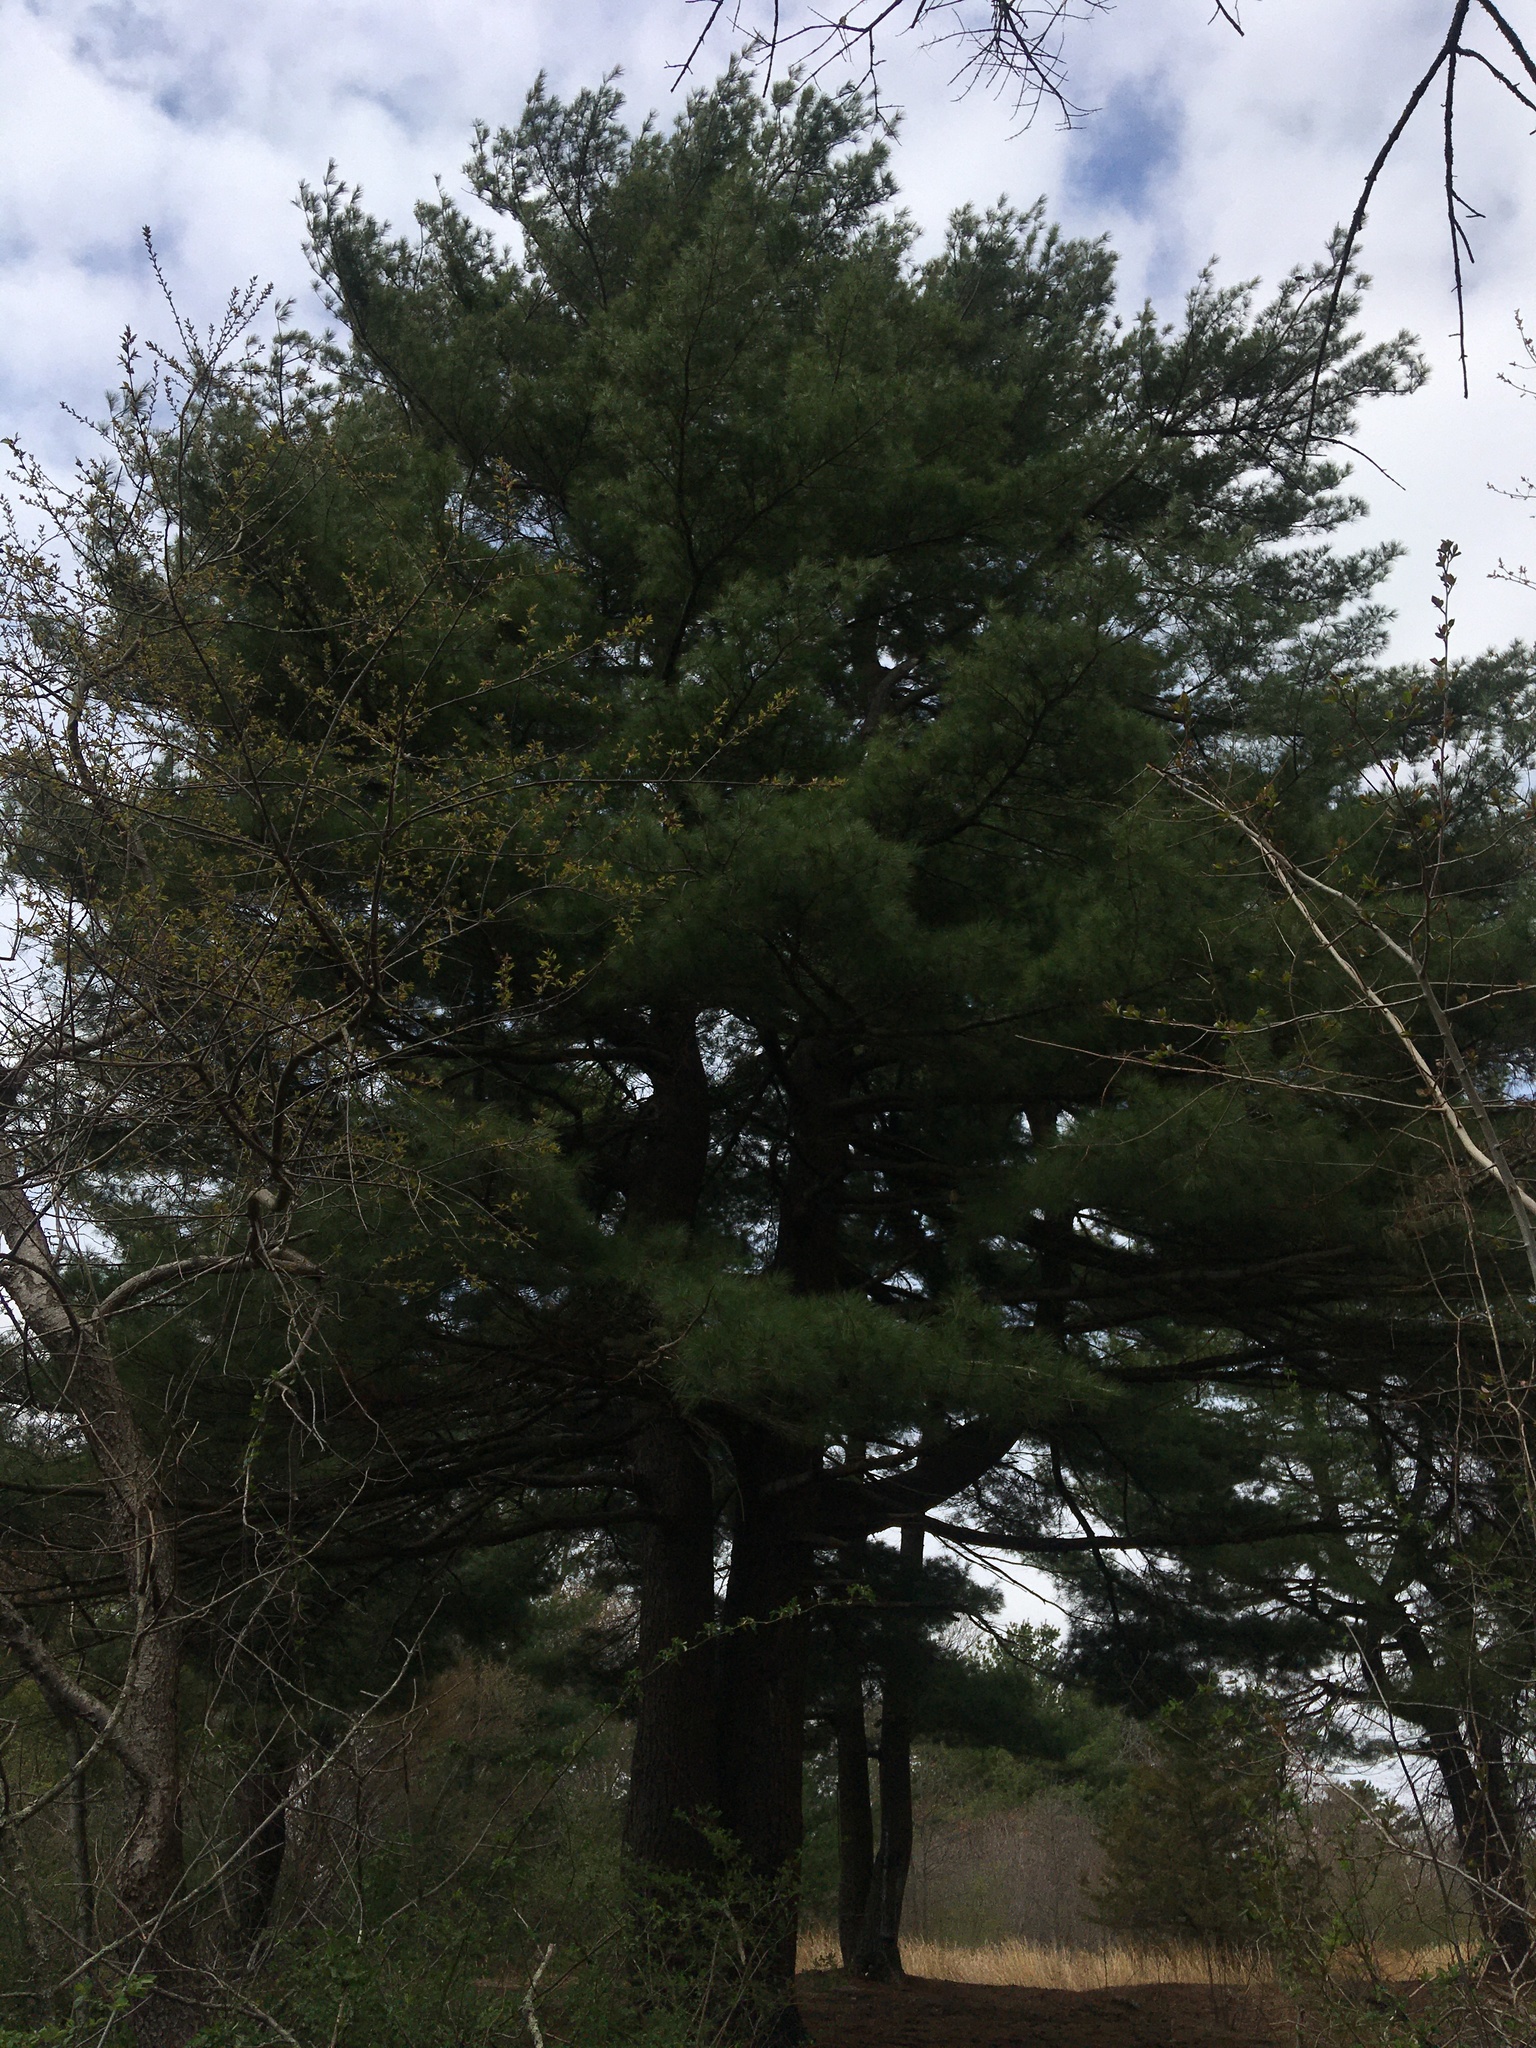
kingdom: Plantae
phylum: Tracheophyta
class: Pinopsida
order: Pinales
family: Pinaceae
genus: Pinus
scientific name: Pinus strobus
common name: Weymouth pine
